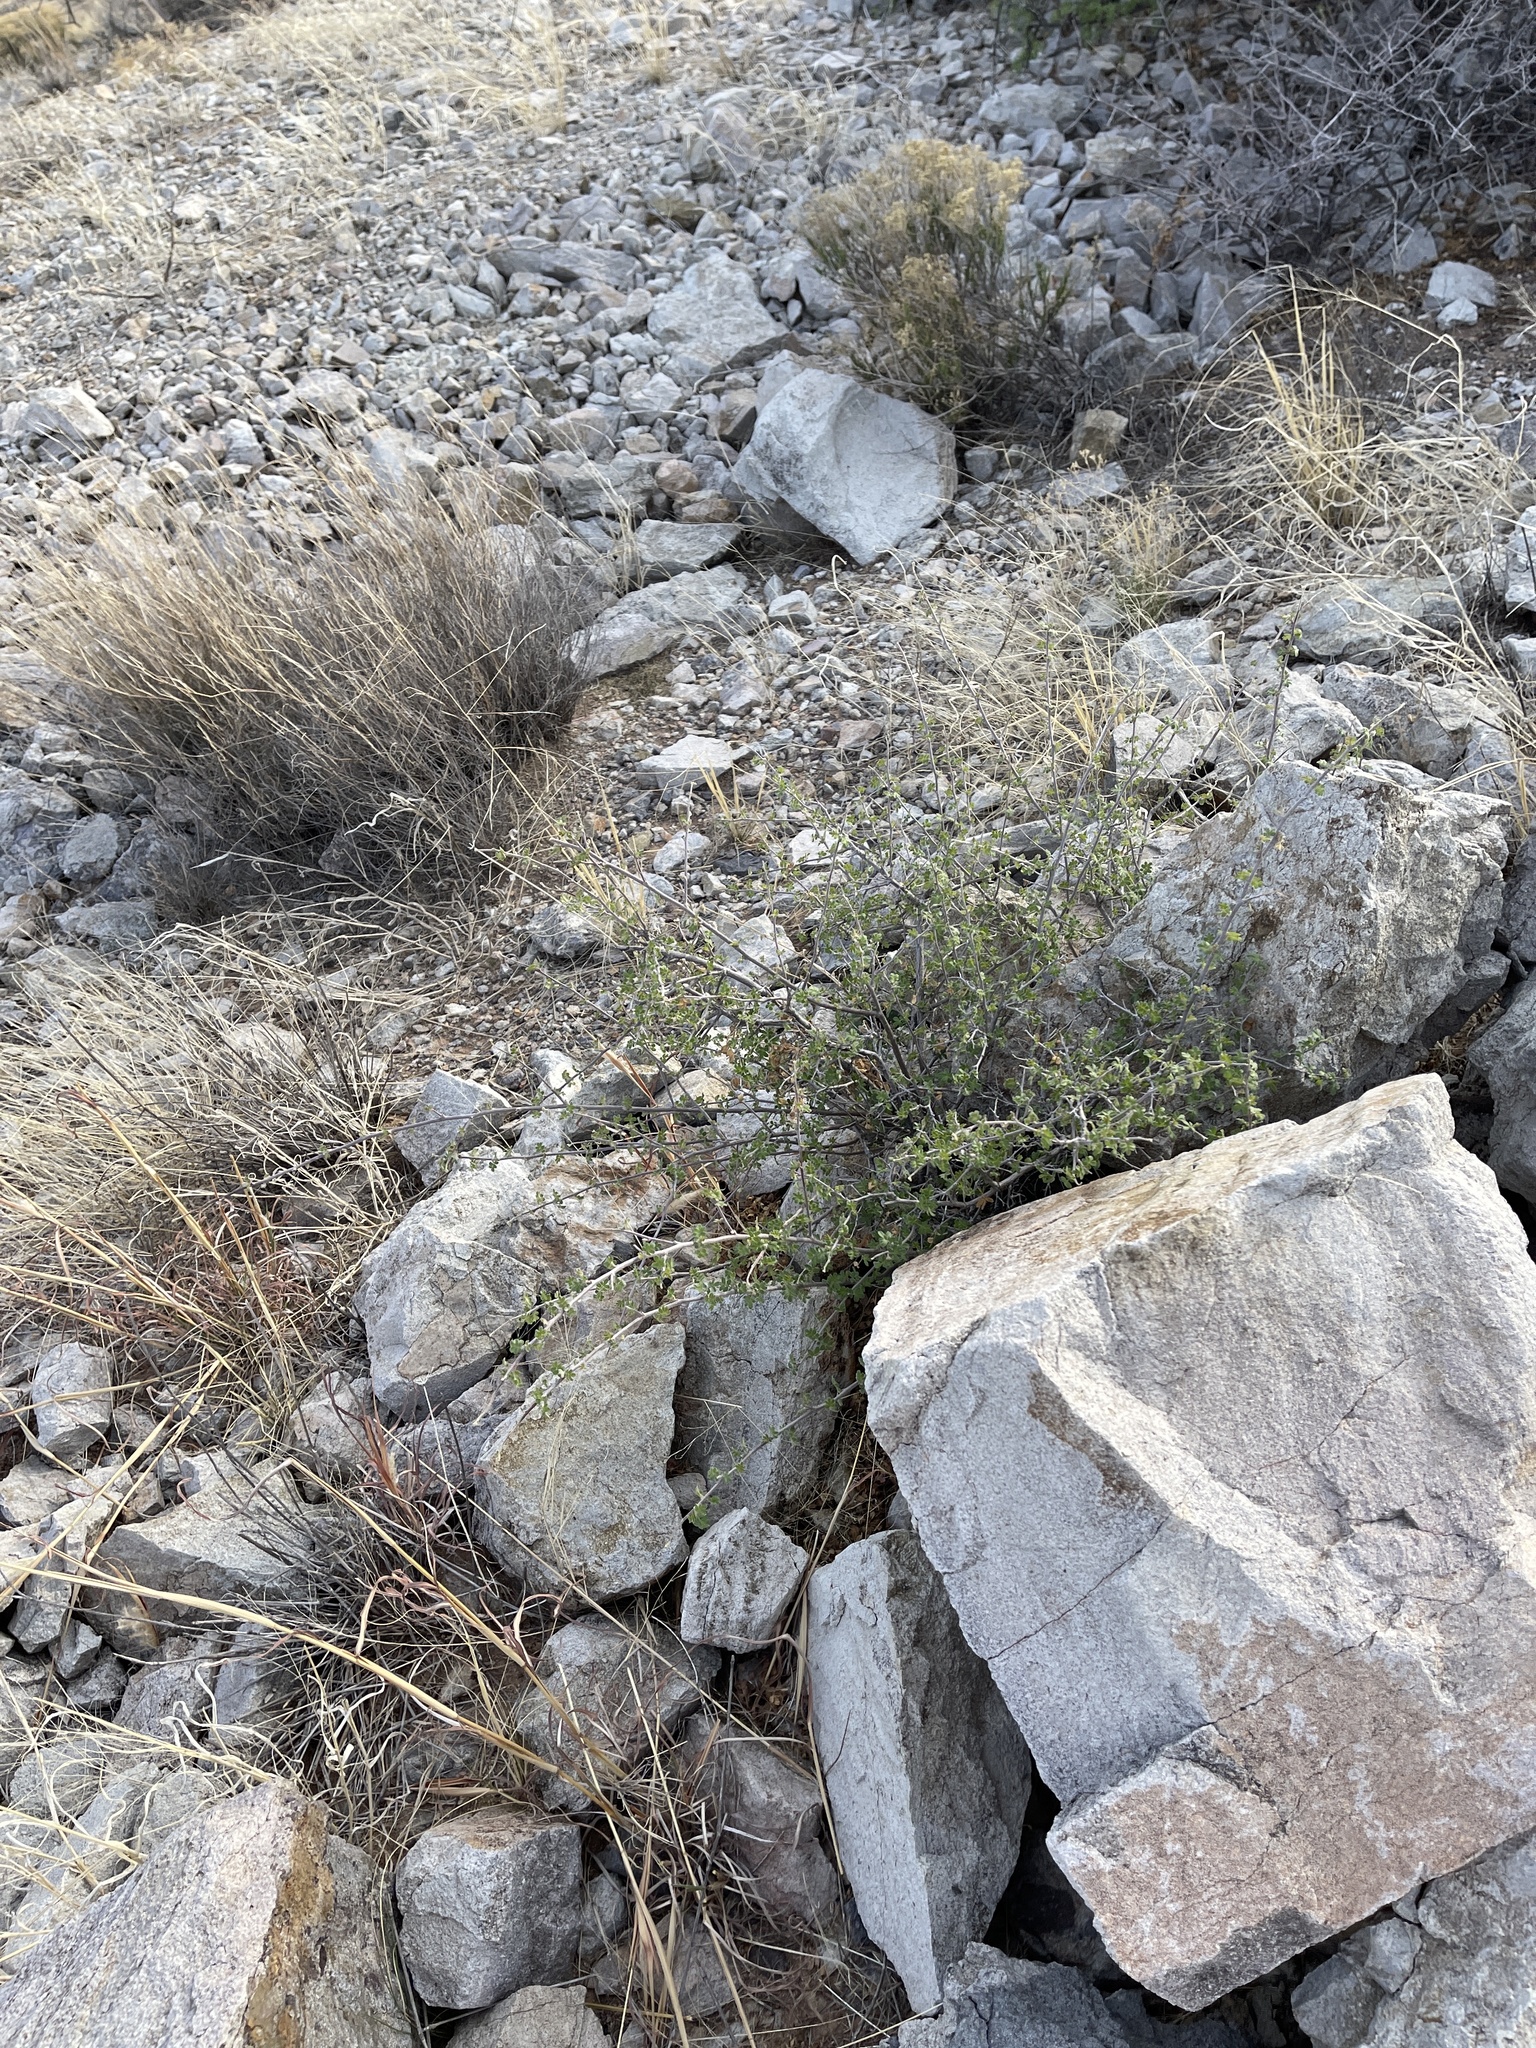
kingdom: Plantae
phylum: Tracheophyta
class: Magnoliopsida
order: Sapindales
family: Anacardiaceae
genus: Rhus
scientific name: Rhus microphylla
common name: Desert sumac
